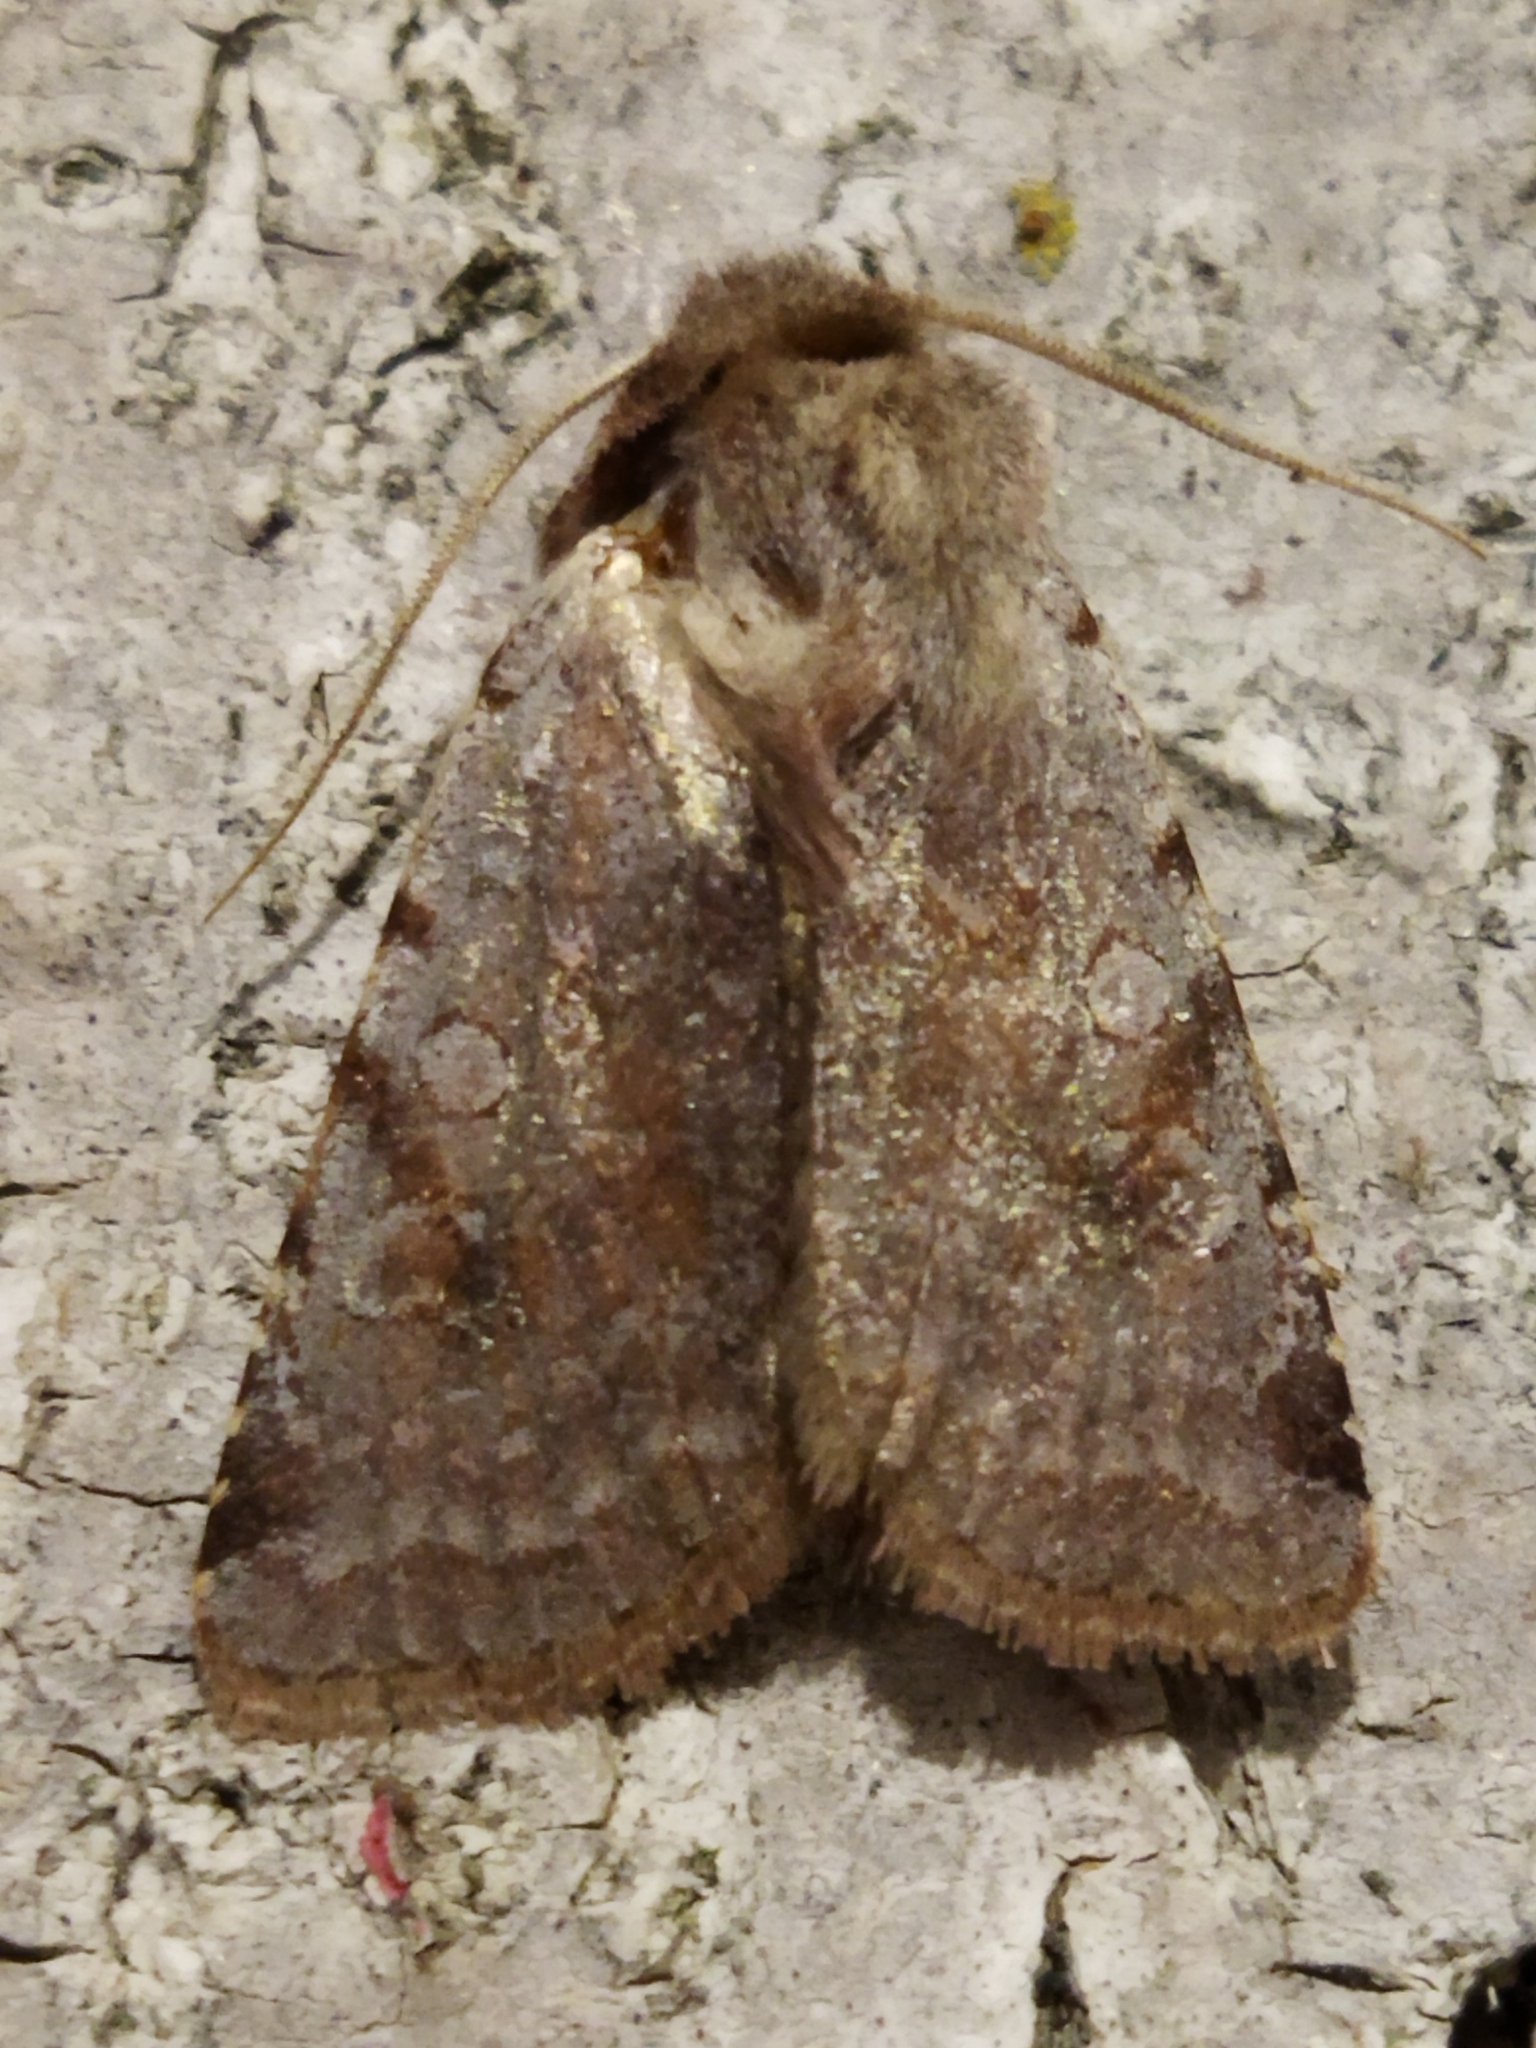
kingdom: Animalia
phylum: Arthropoda
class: Insecta
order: Lepidoptera
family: Noctuidae
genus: Cerastis
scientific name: Cerastis rubricosa
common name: Red chestnut
